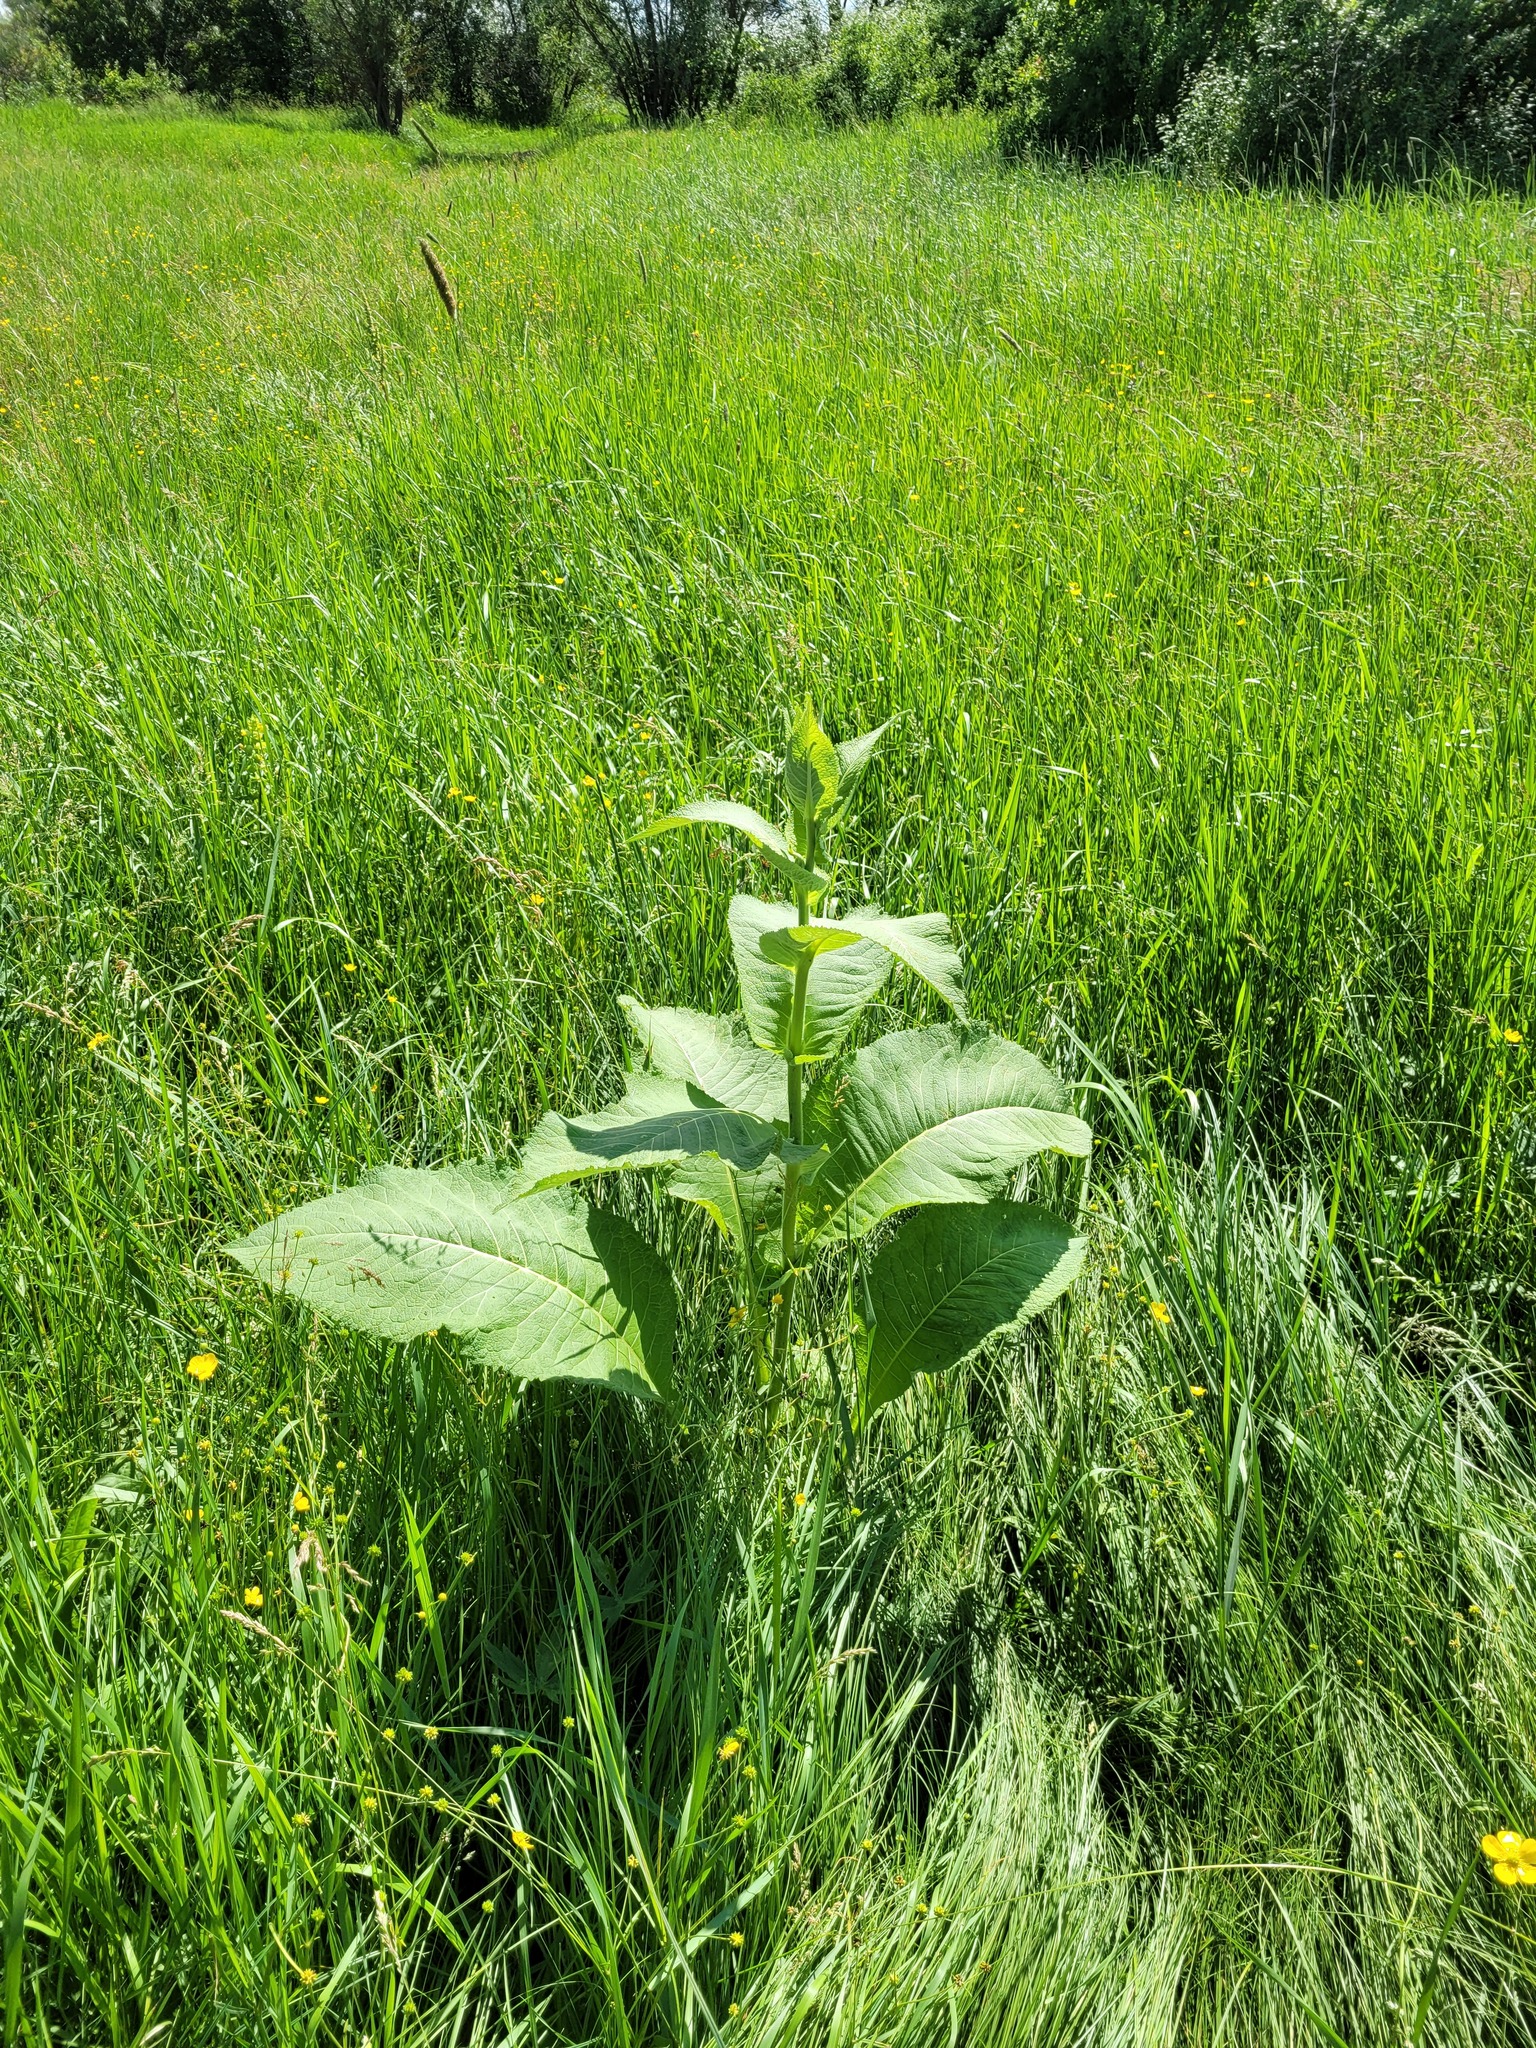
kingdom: Plantae
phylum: Tracheophyta
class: Magnoliopsida
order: Asterales
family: Asteraceae
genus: Inula
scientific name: Inula helenium
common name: Elecampane
